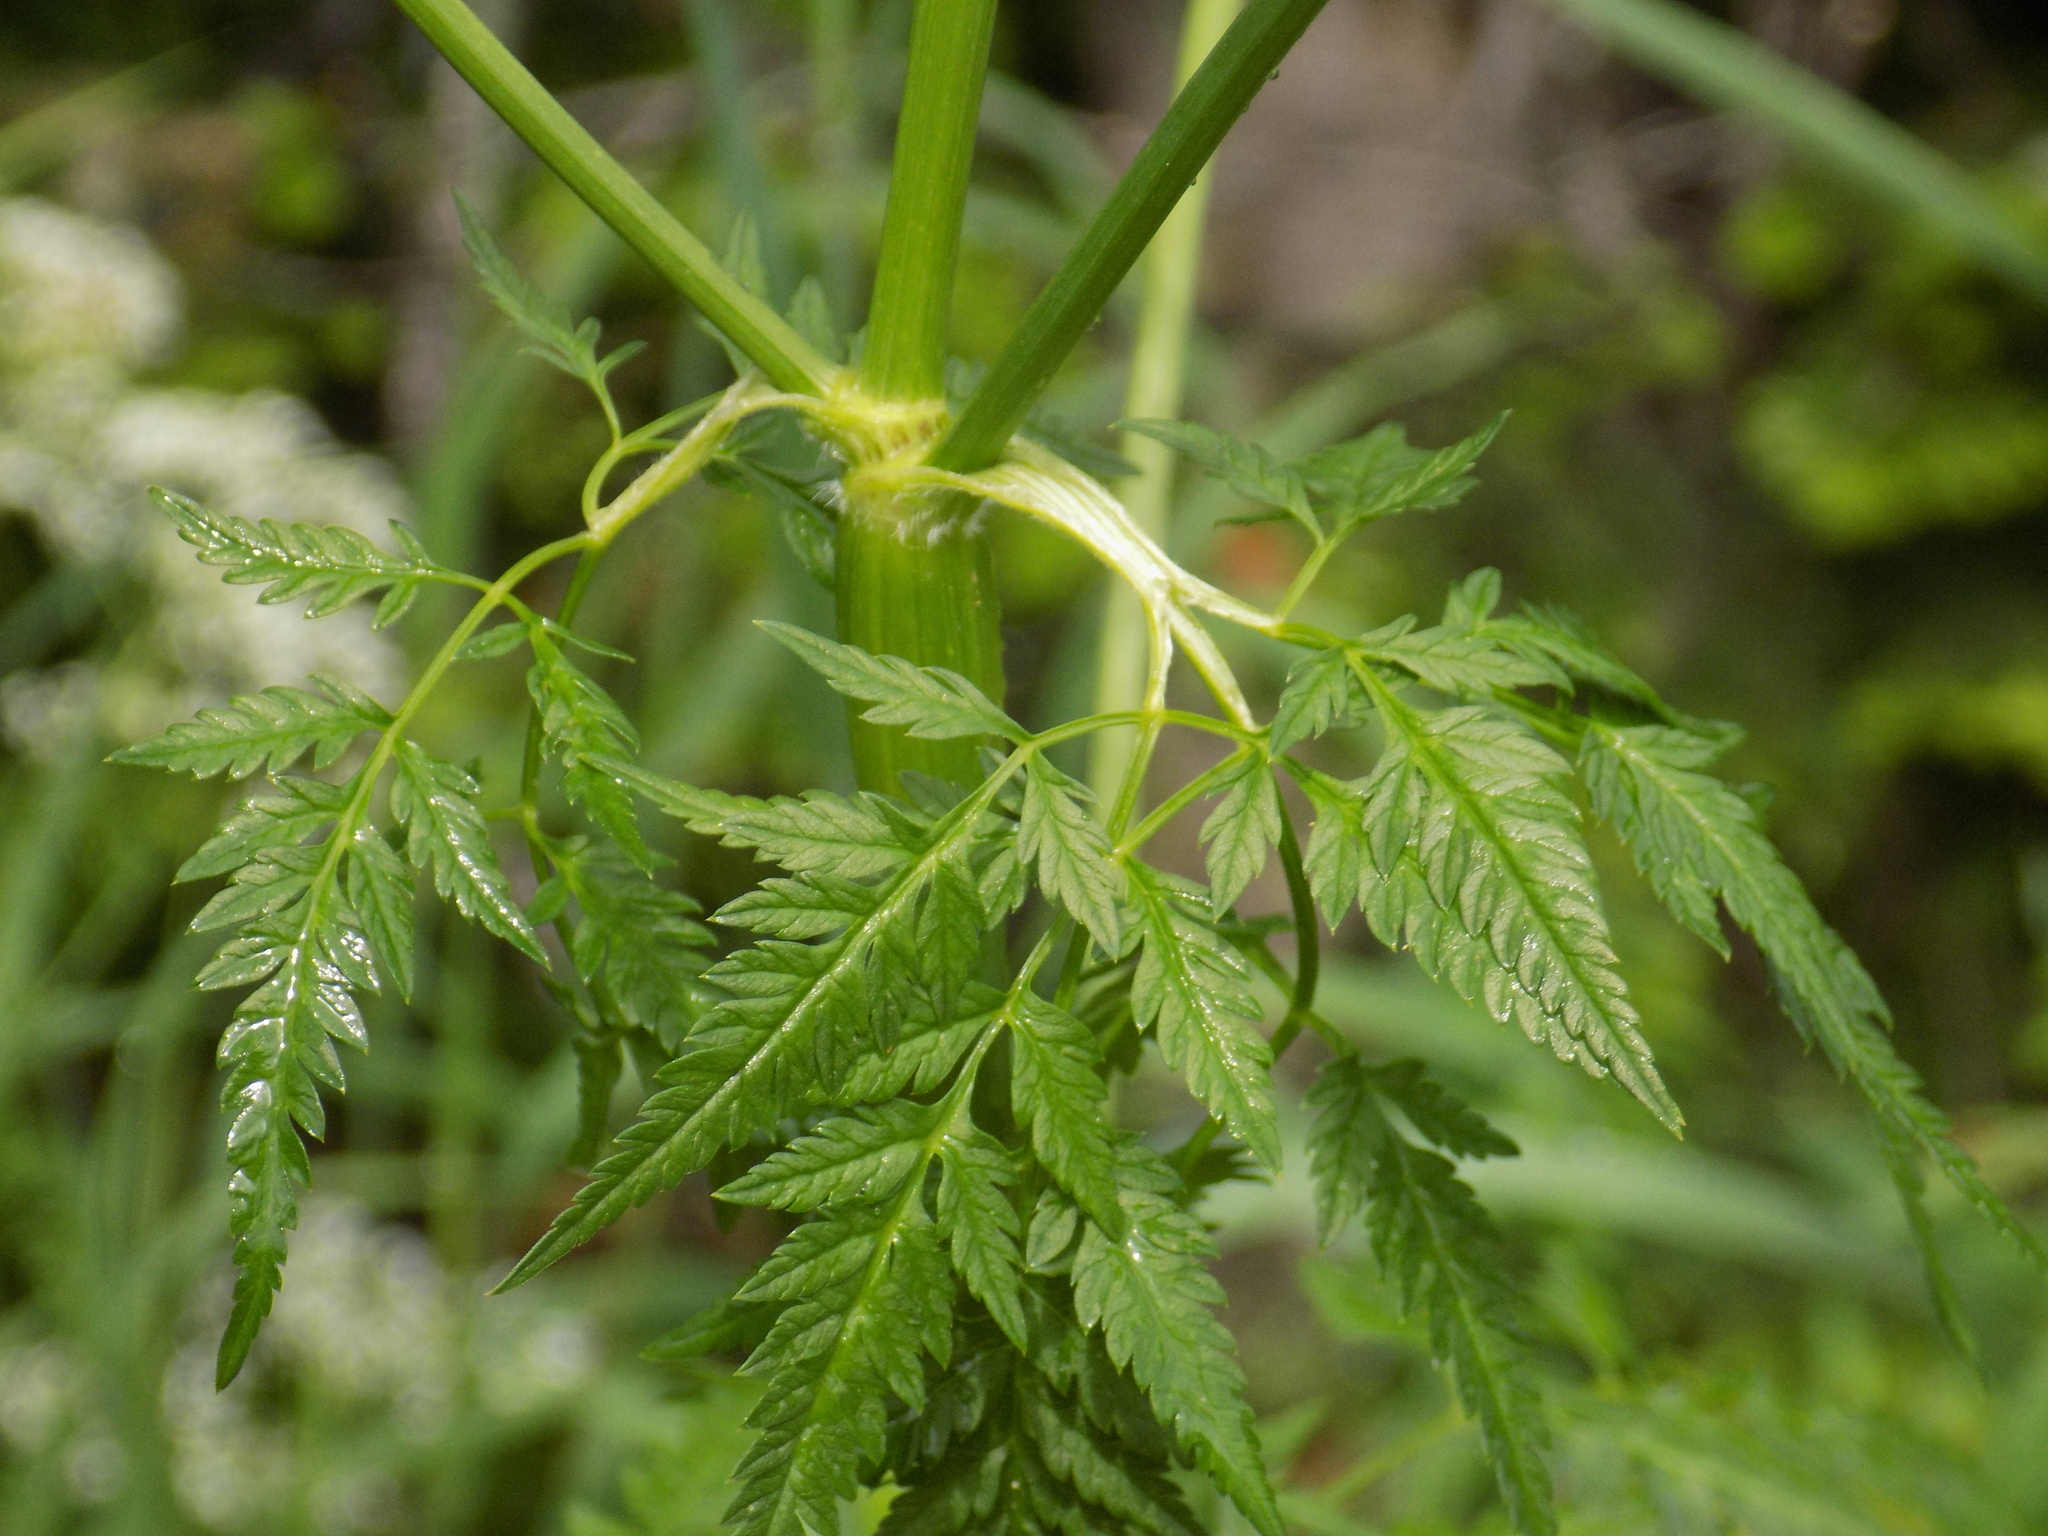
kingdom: Plantae
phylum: Tracheophyta
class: Magnoliopsida
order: Apiales
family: Apiaceae
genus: Anthriscus
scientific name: Anthriscus sylvestris
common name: Cow parsley
